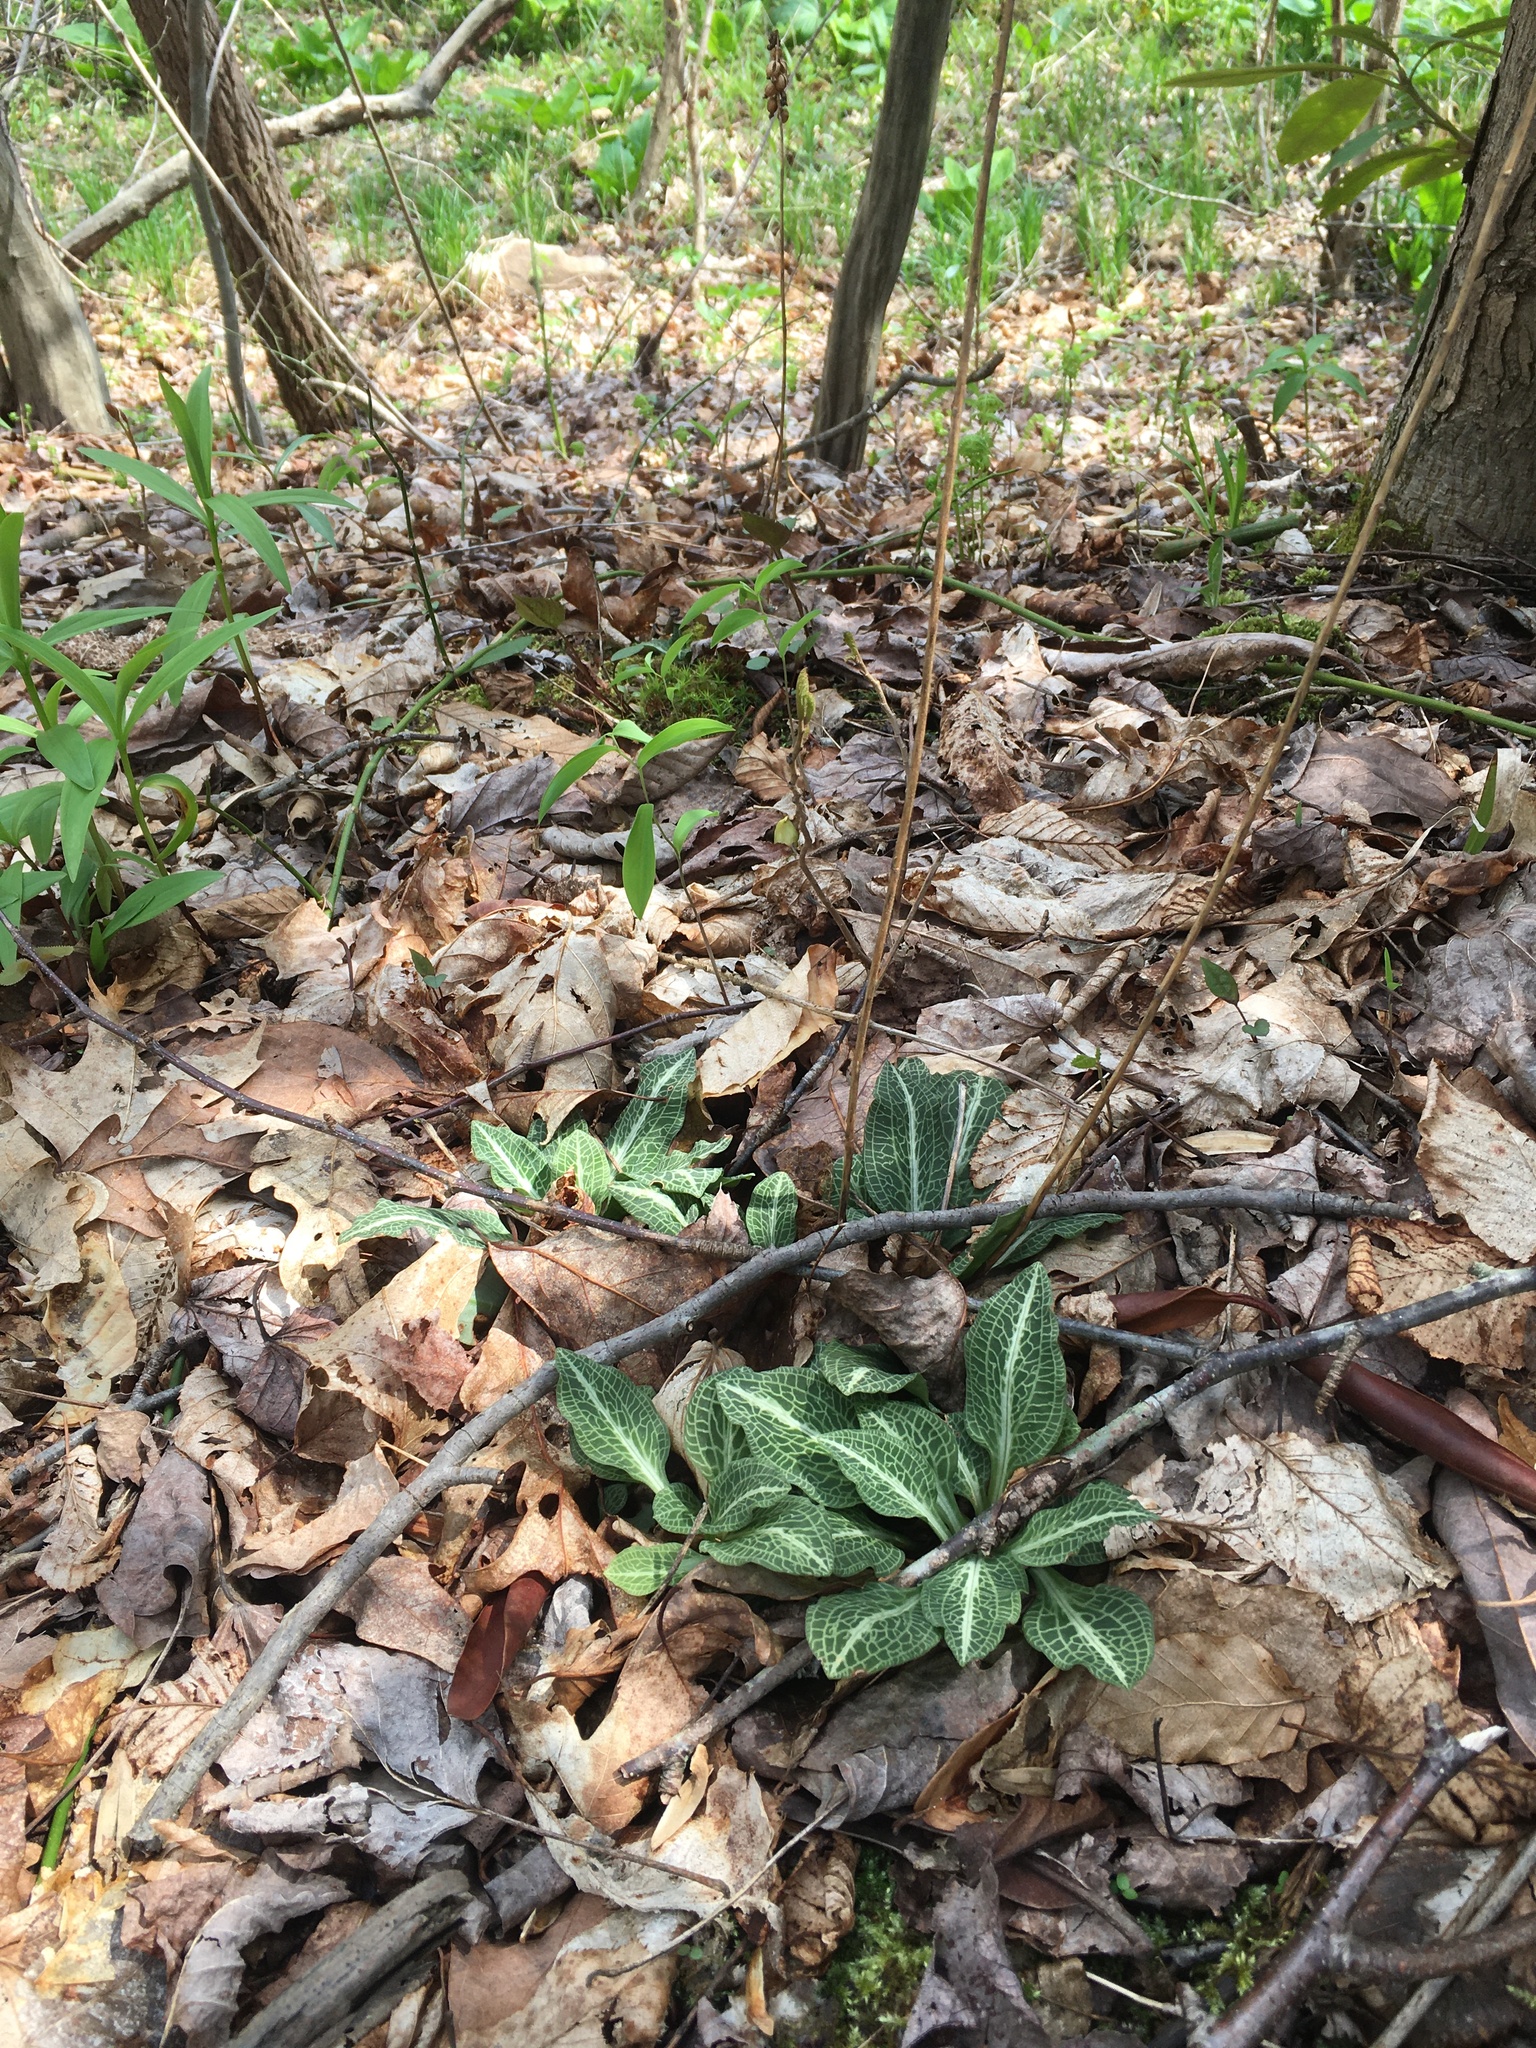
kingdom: Plantae
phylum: Tracheophyta
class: Liliopsida
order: Asparagales
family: Orchidaceae
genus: Goodyera
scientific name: Goodyera pubescens
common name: Downy rattlesnake-plantain
